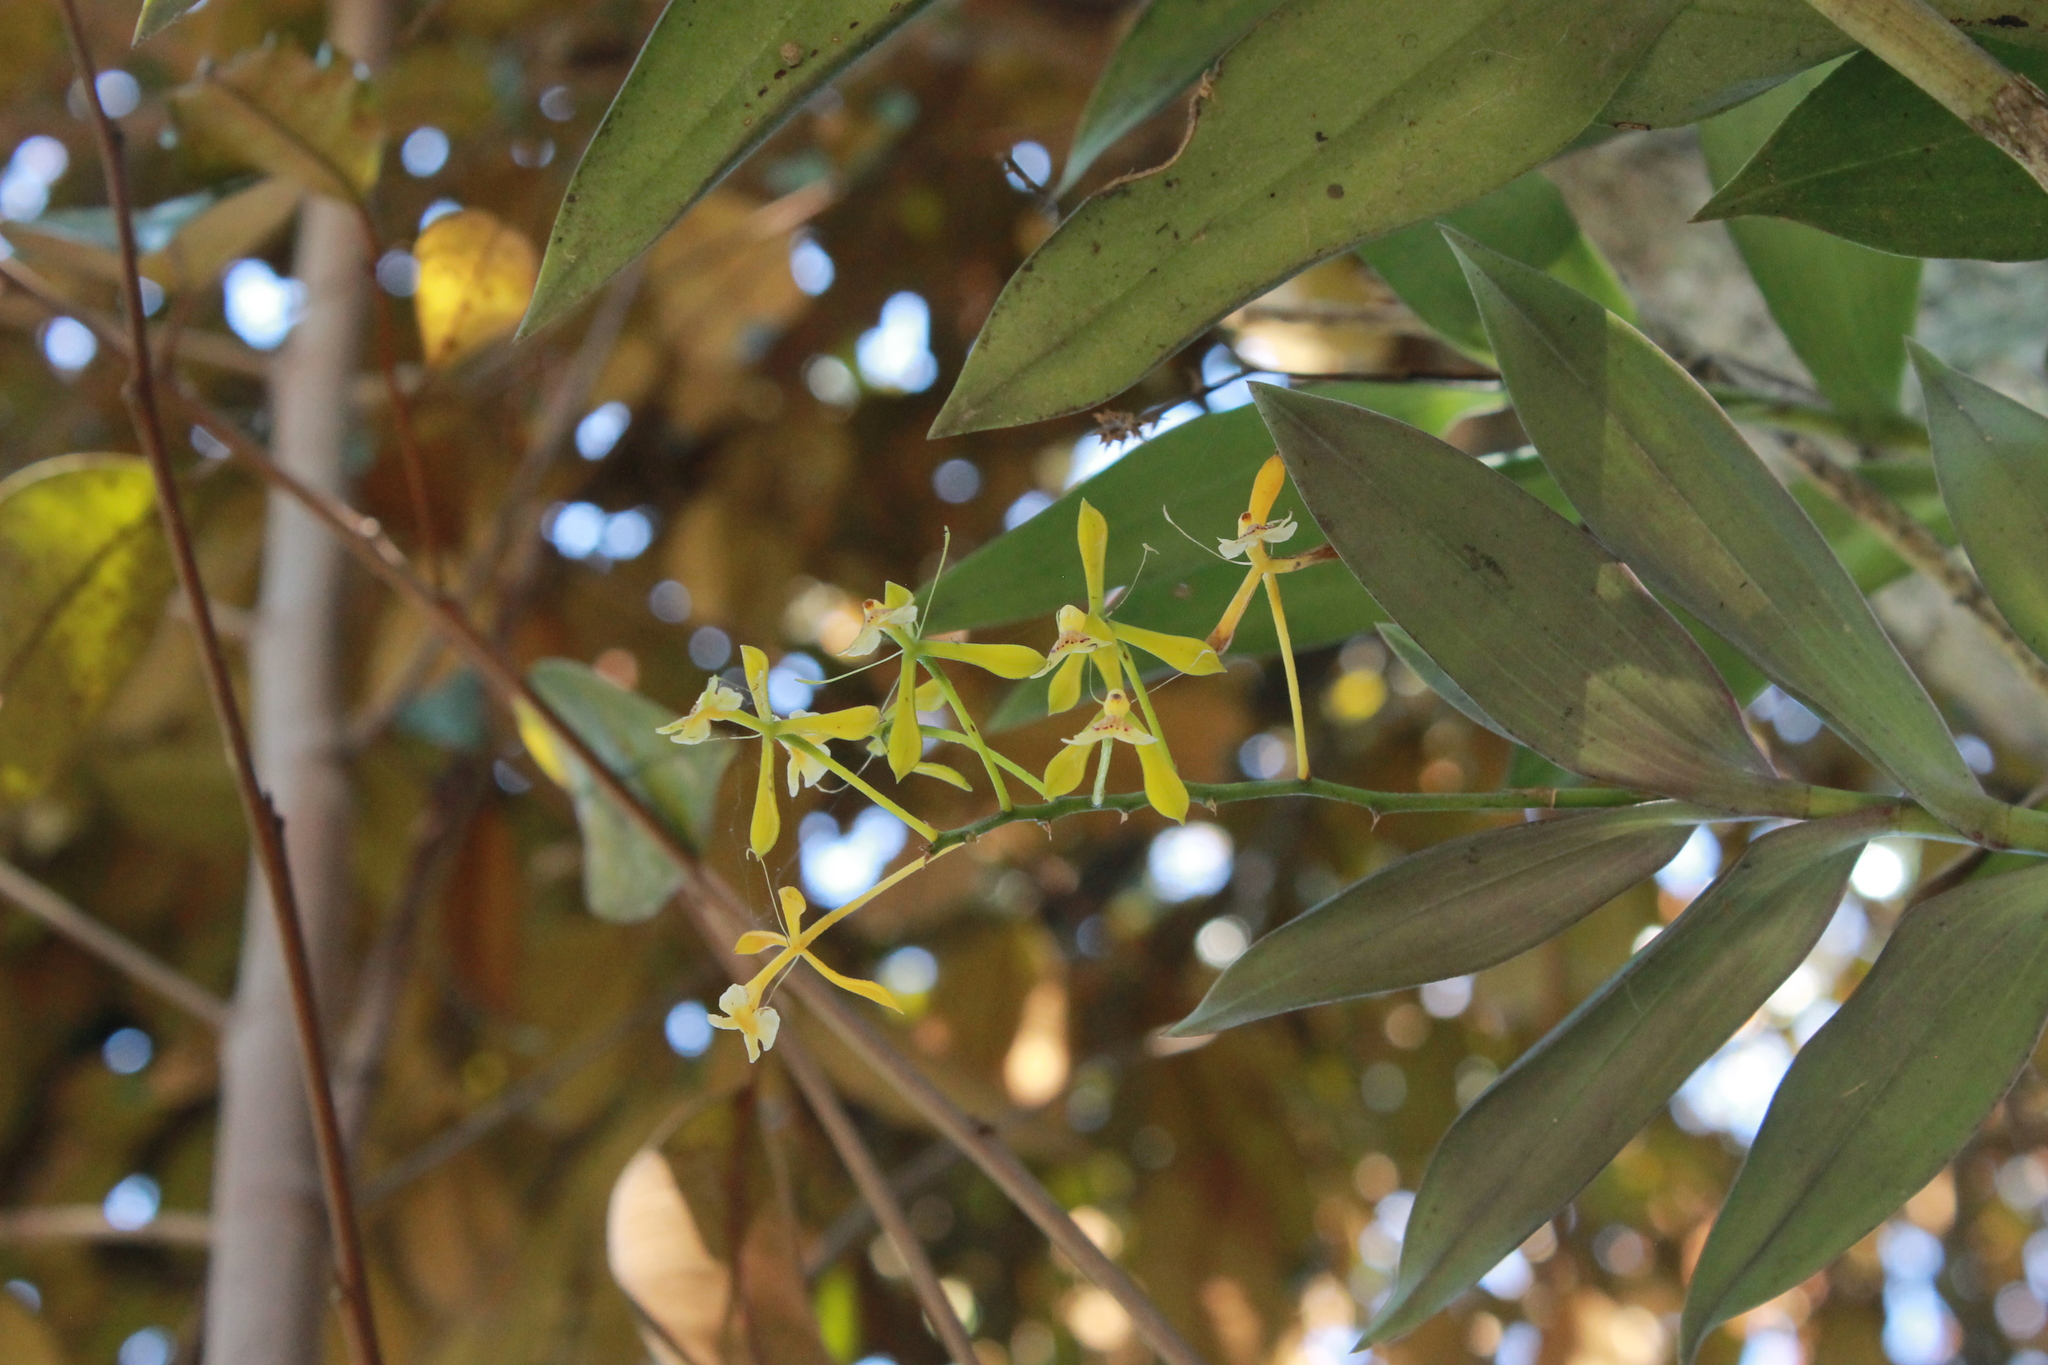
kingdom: Plantae
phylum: Tracheophyta
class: Liliopsida
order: Asparagales
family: Orchidaceae
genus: Epidendrum
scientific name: Epidendrum veroscriptum
